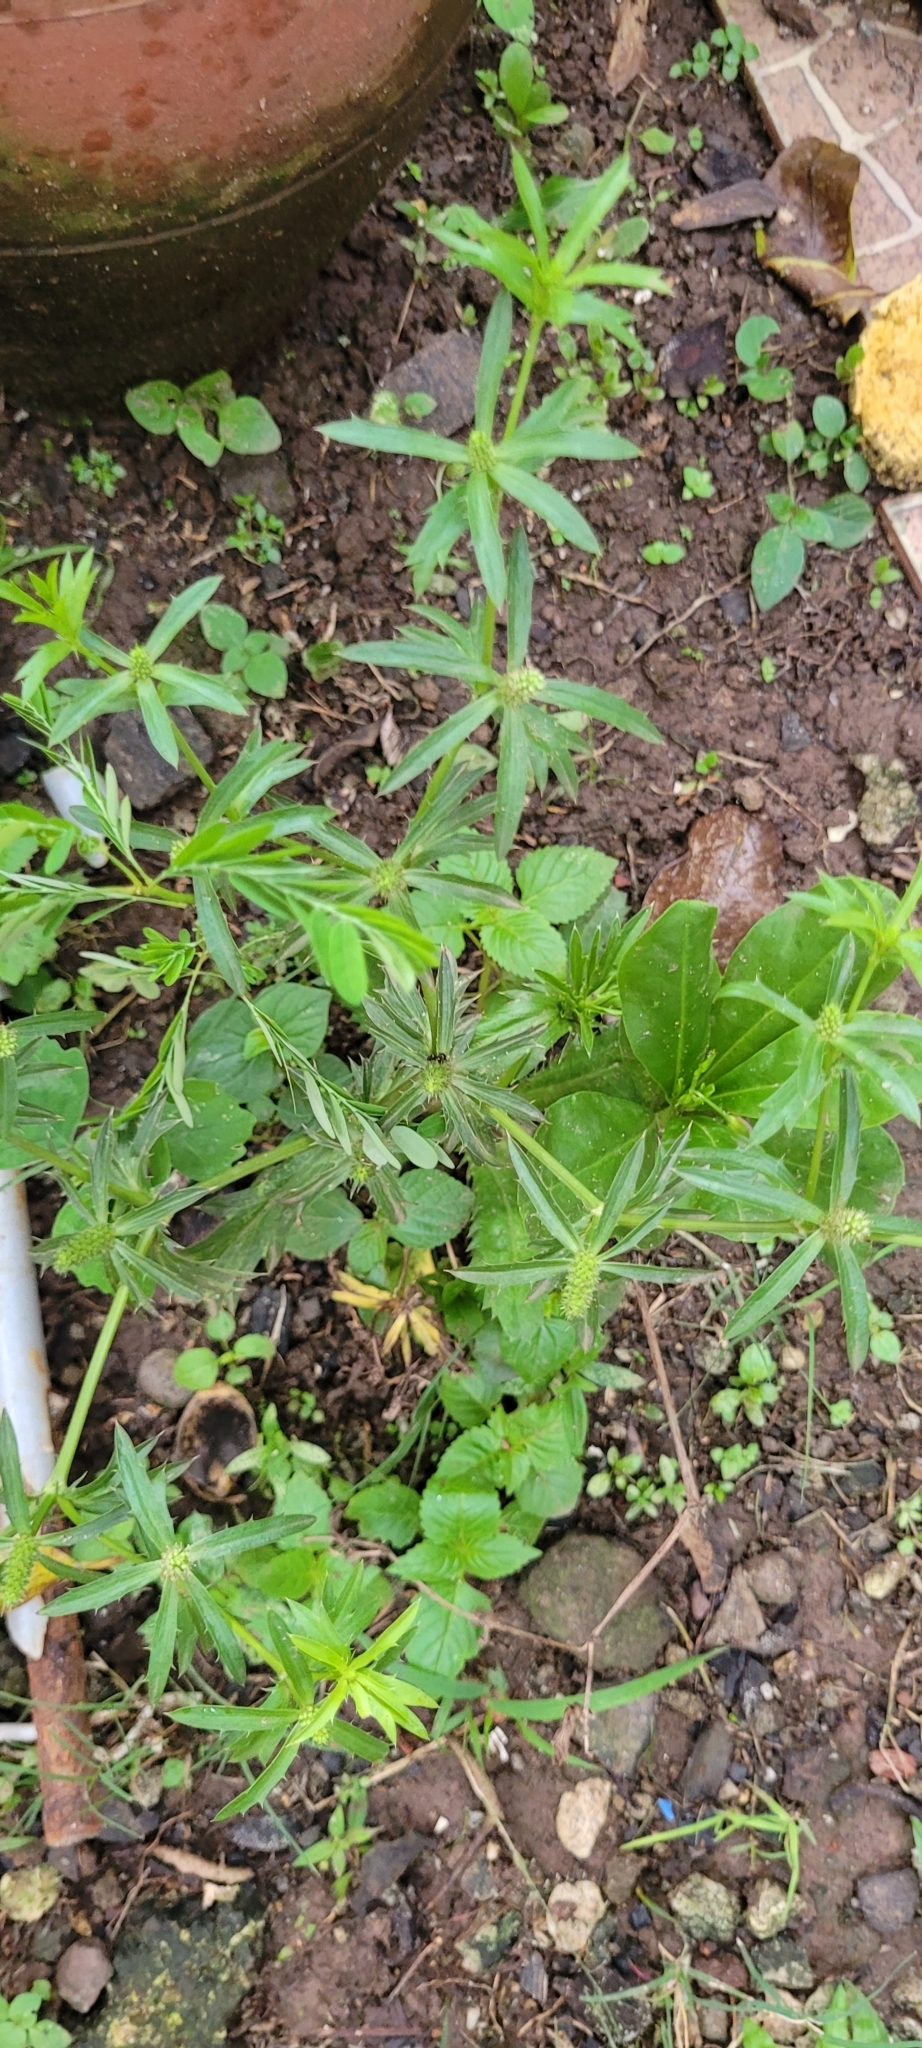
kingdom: Plantae
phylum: Tracheophyta
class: Magnoliopsida
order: Apiales
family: Apiaceae
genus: Eryngium
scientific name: Eryngium foetidum
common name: Fitweed
